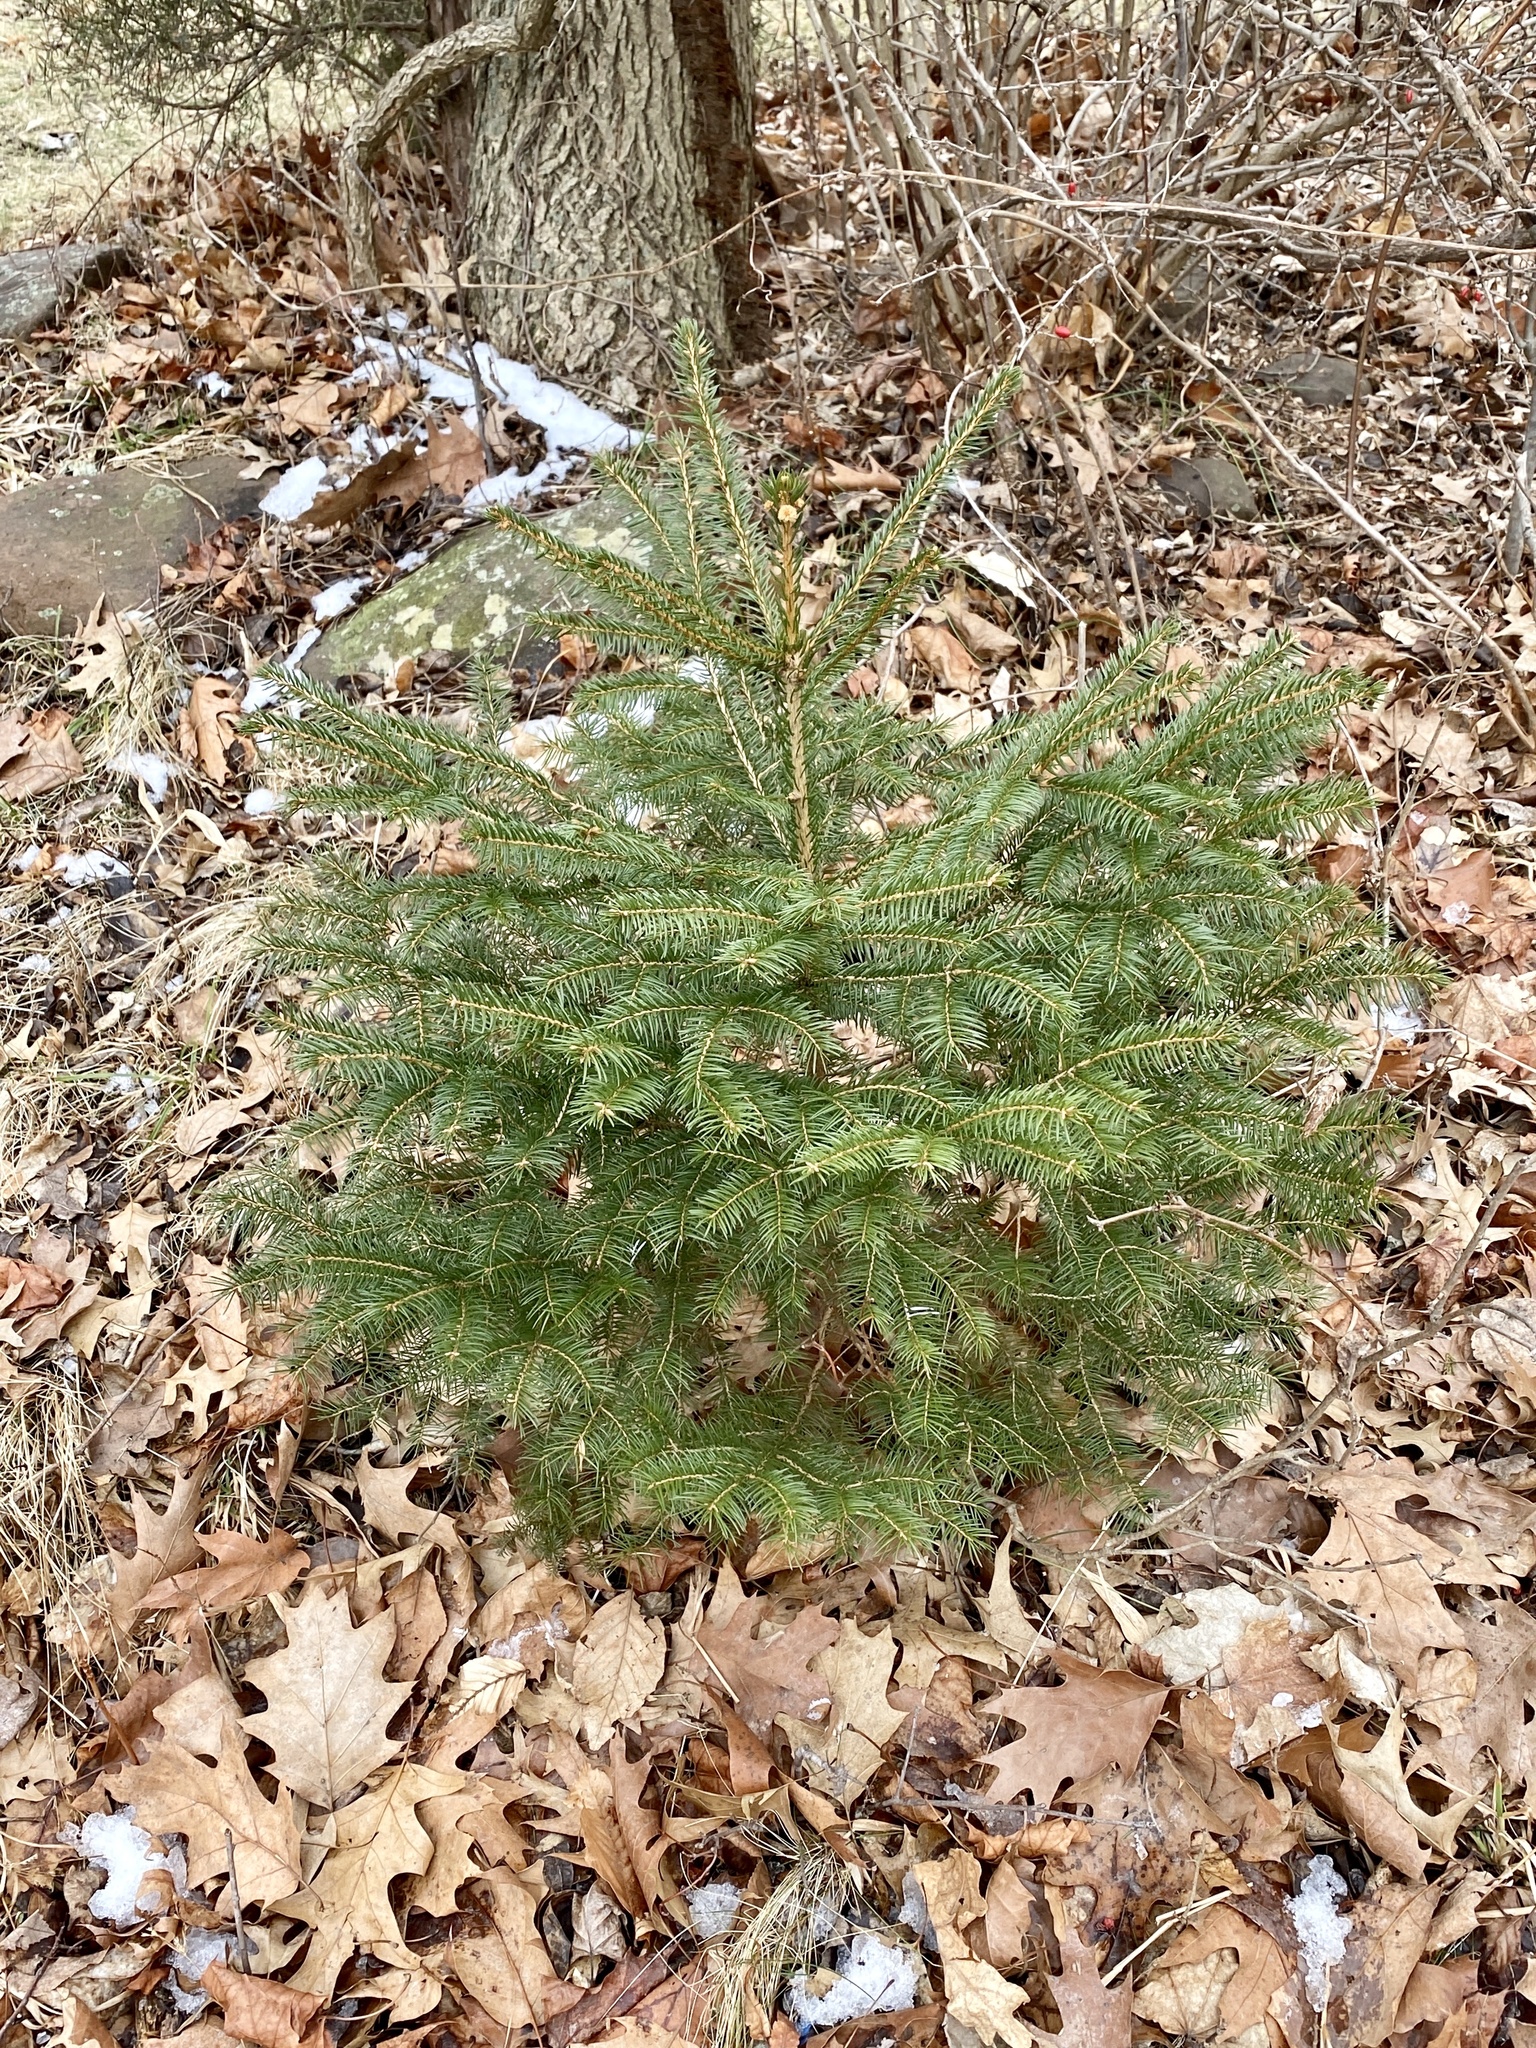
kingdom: Plantae
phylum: Tracheophyta
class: Pinopsida
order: Pinales
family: Pinaceae
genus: Picea
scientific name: Picea abies
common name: Norway spruce
